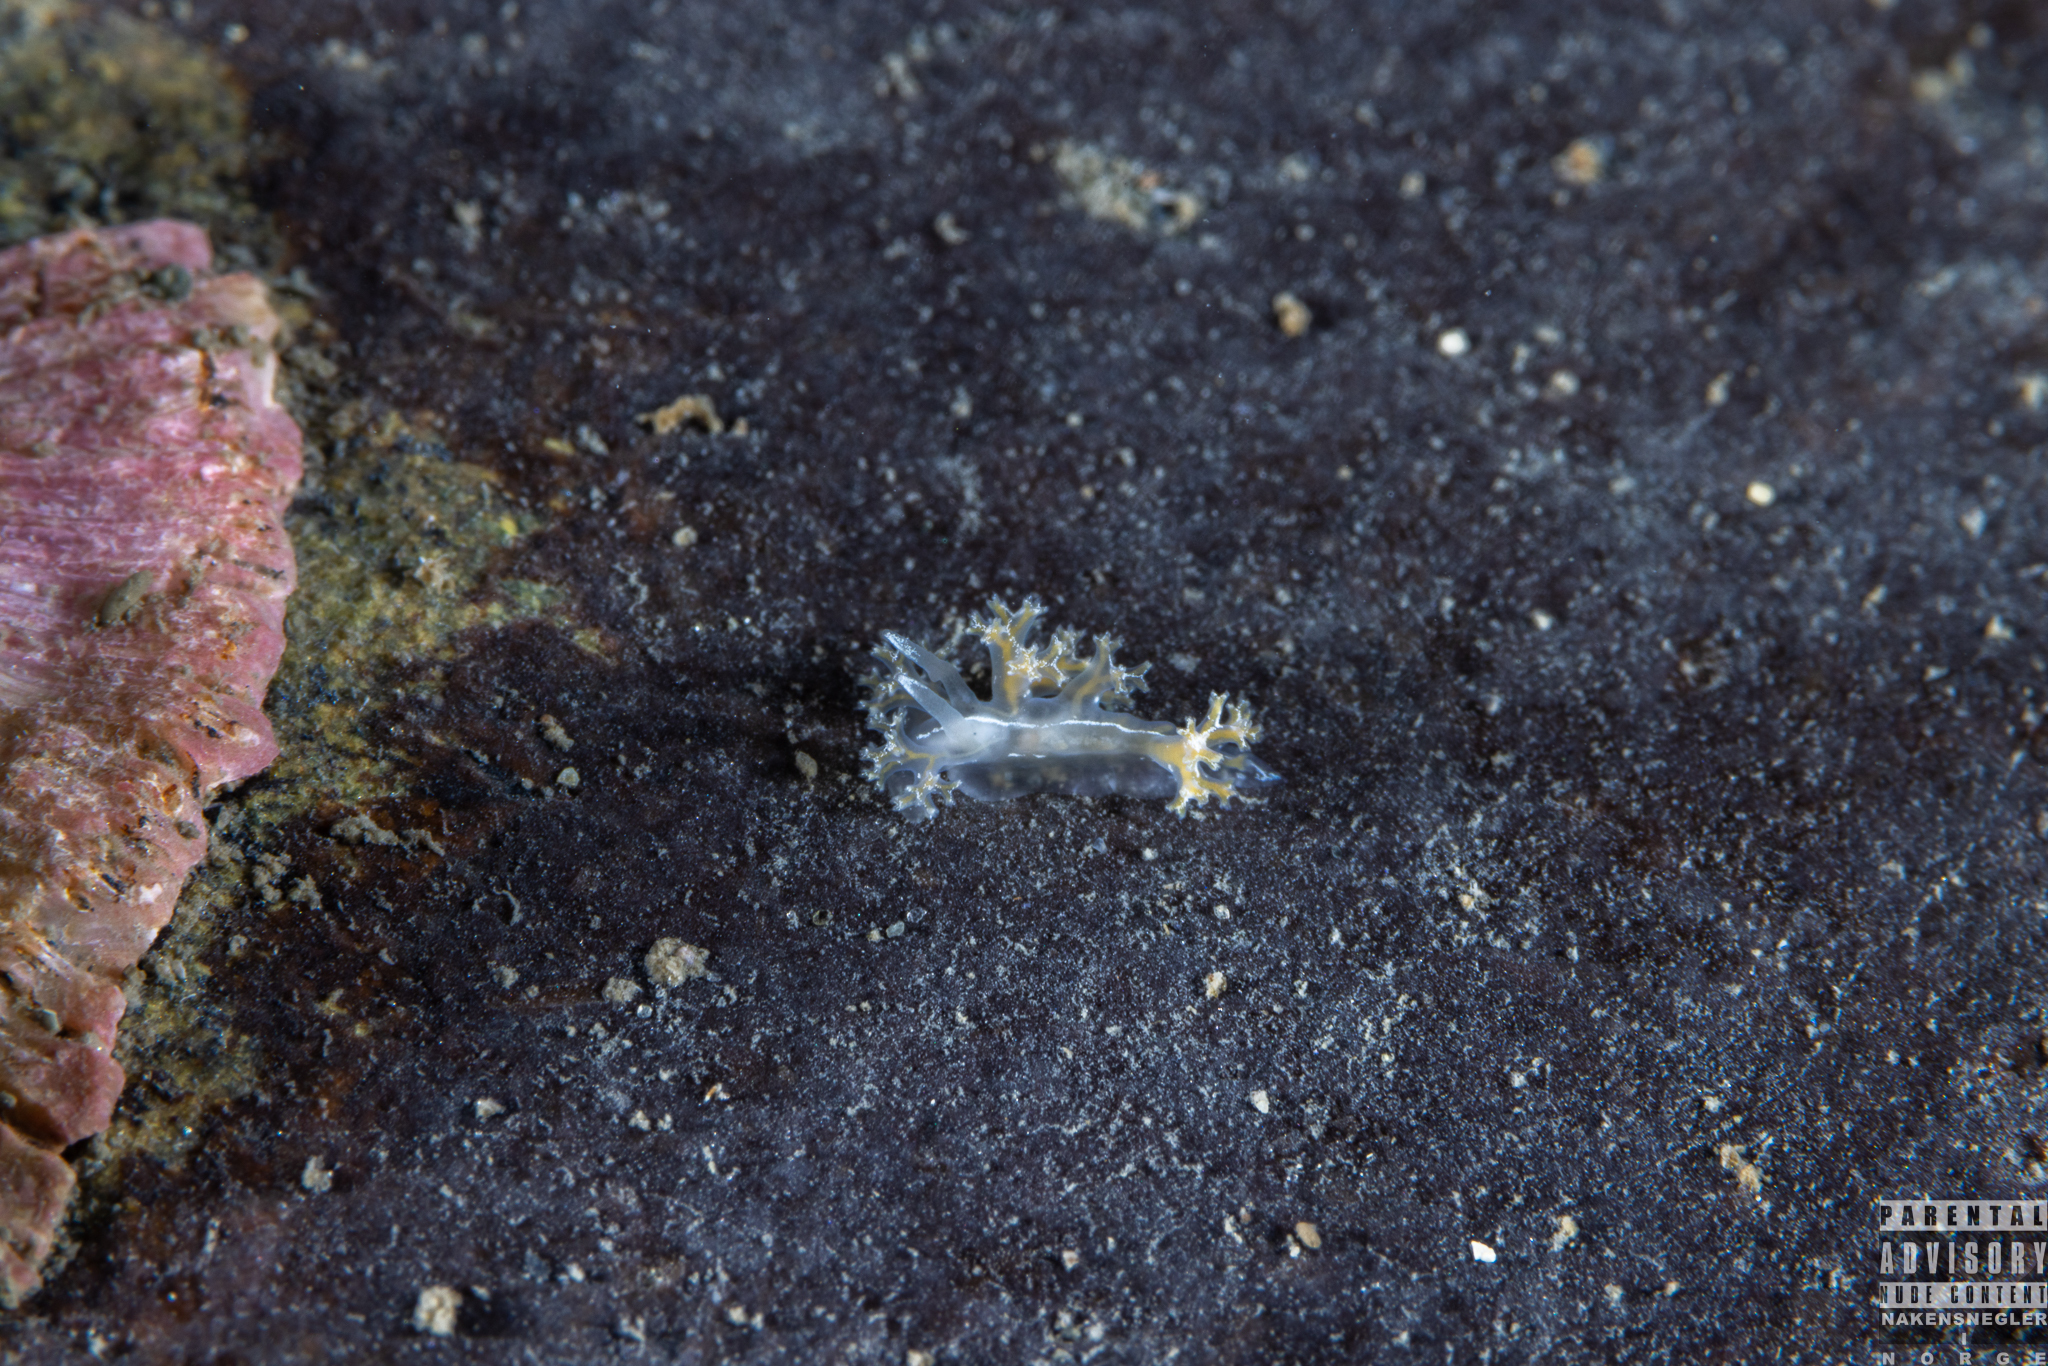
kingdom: Animalia
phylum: Mollusca
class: Gastropoda
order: Nudibranchia
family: Heroidae
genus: Hero
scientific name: Hero formosa
